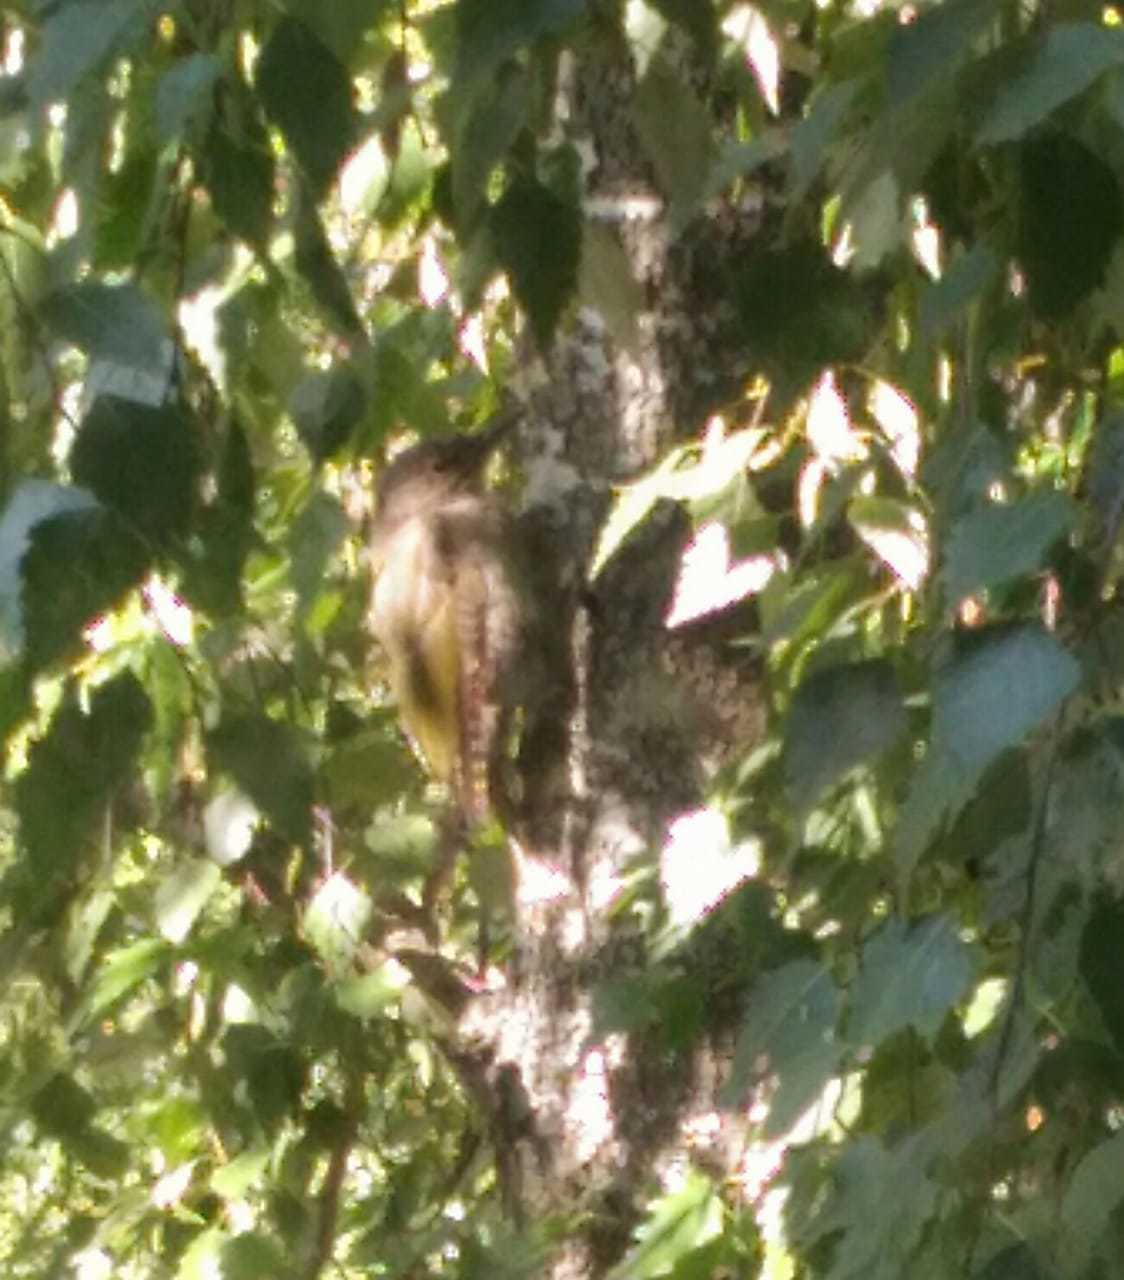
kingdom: Animalia
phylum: Chordata
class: Aves
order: Piciformes
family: Picidae
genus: Picus
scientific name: Picus canus
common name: Grey-headed woodpecker
